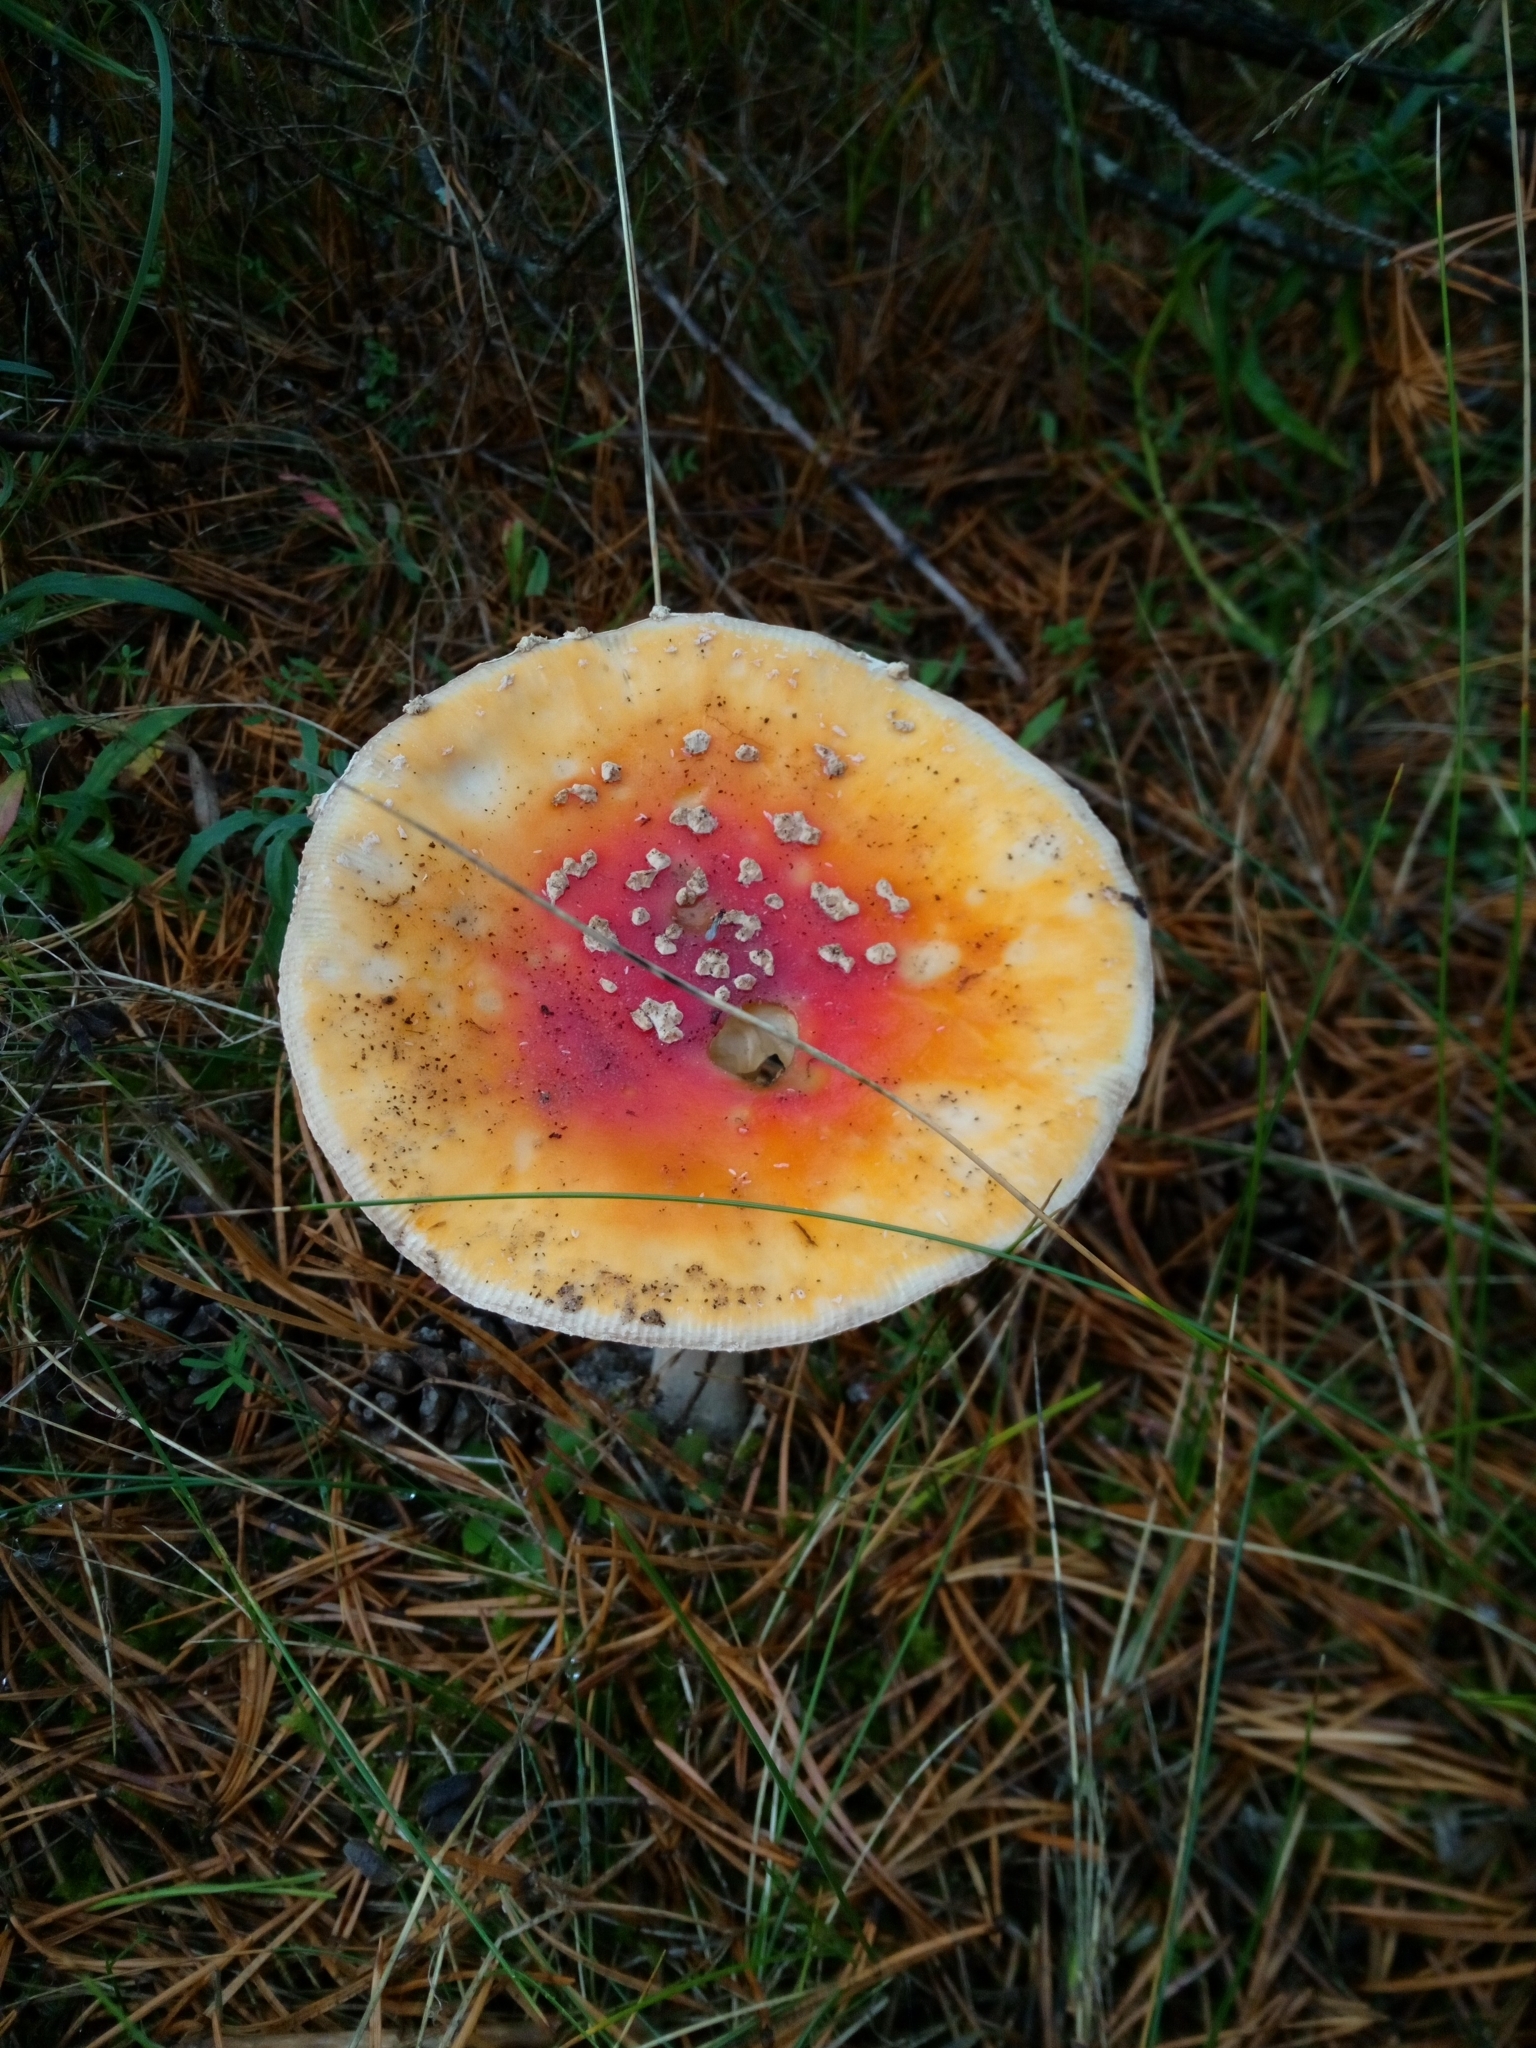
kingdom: Fungi
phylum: Basidiomycota
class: Agaricomycetes
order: Agaricales
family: Amanitaceae
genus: Amanita
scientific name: Amanita muscaria
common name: Fly agaric
